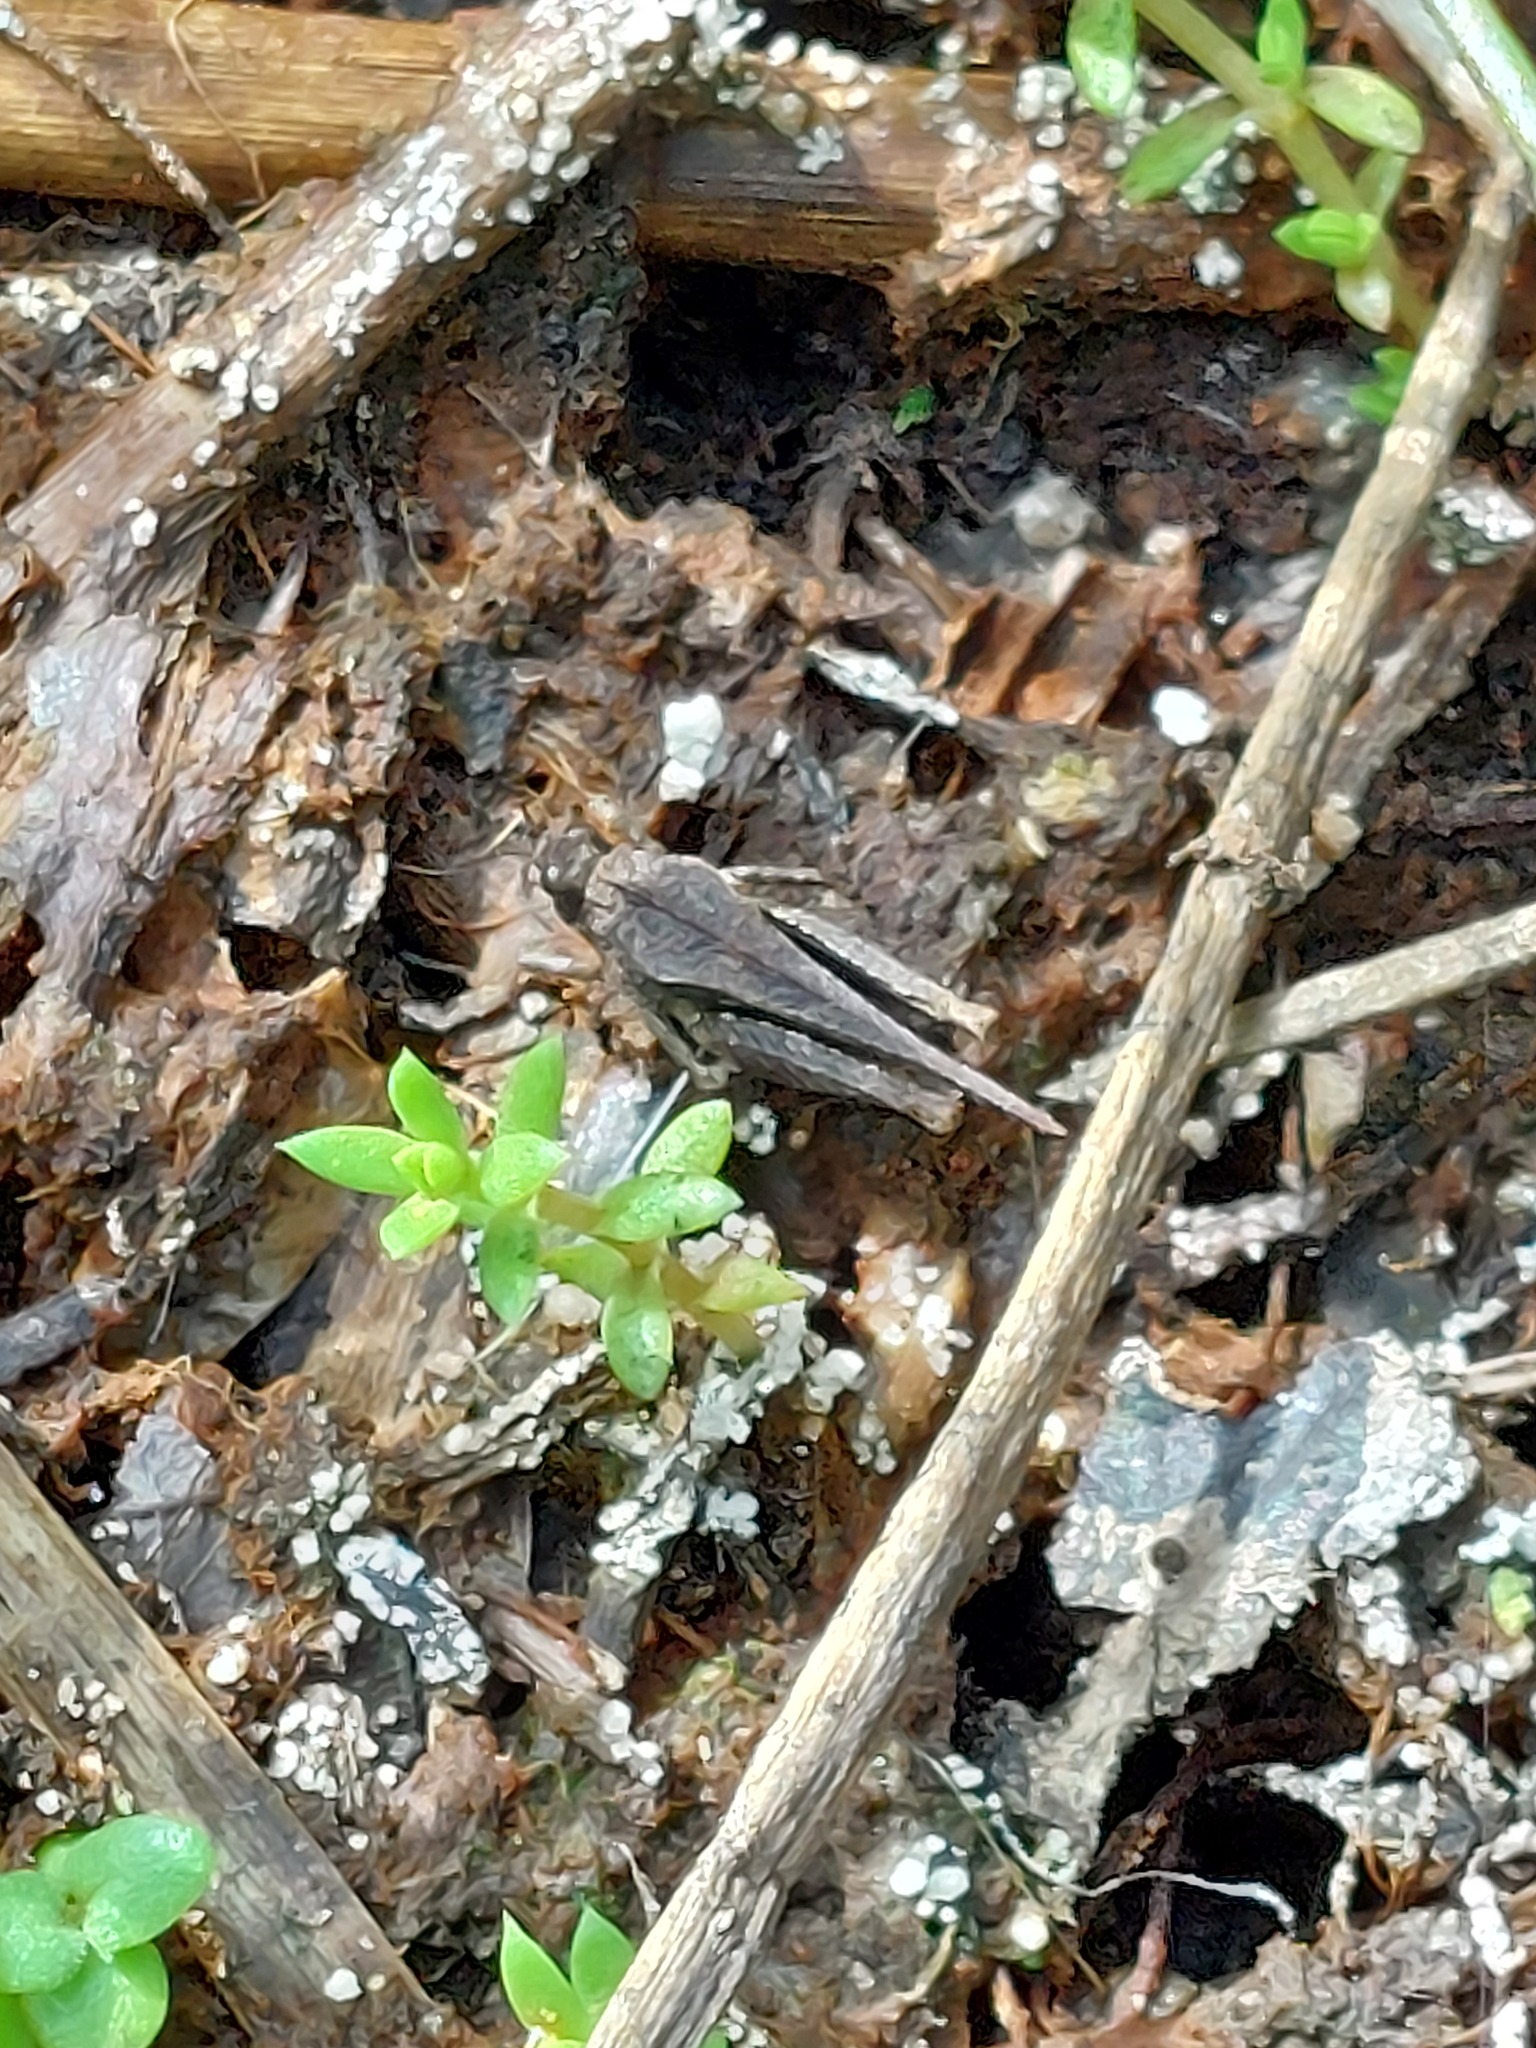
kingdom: Animalia
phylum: Arthropoda
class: Insecta
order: Orthoptera
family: Tetrigidae
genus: Tetrix
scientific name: Tetrix subulata
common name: Slender ground-hopper
